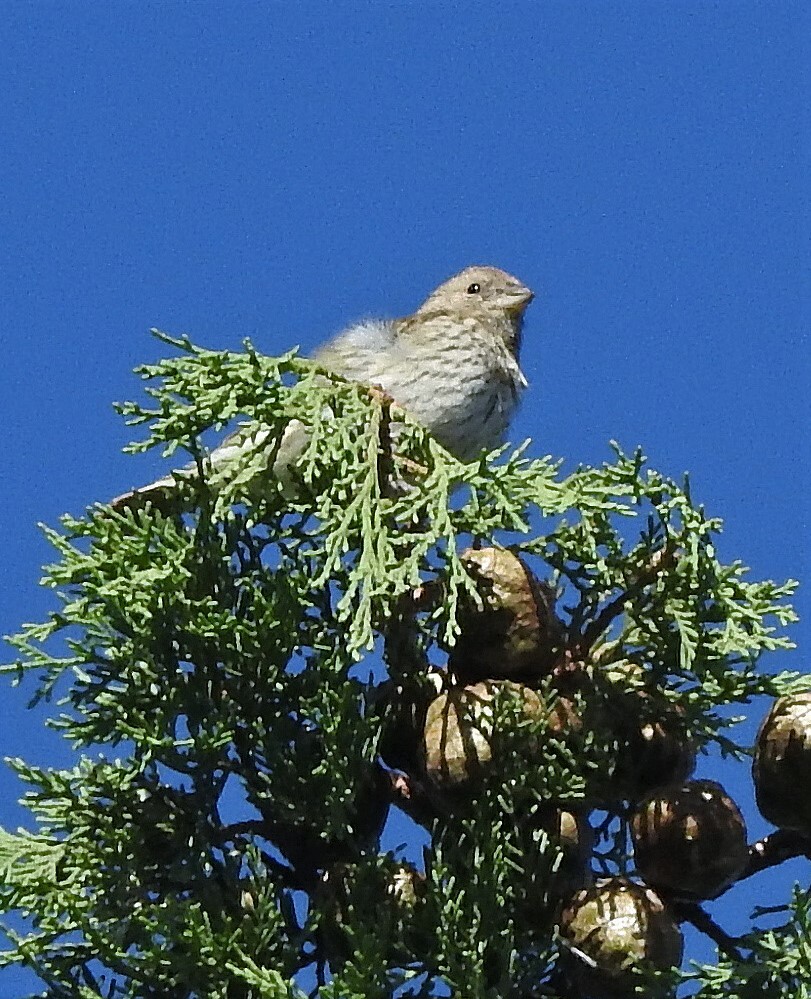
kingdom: Animalia
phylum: Chordata
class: Aves
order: Passeriformes
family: Thraupidae
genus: Sicalis
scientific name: Sicalis flaveola
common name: Saffron finch
